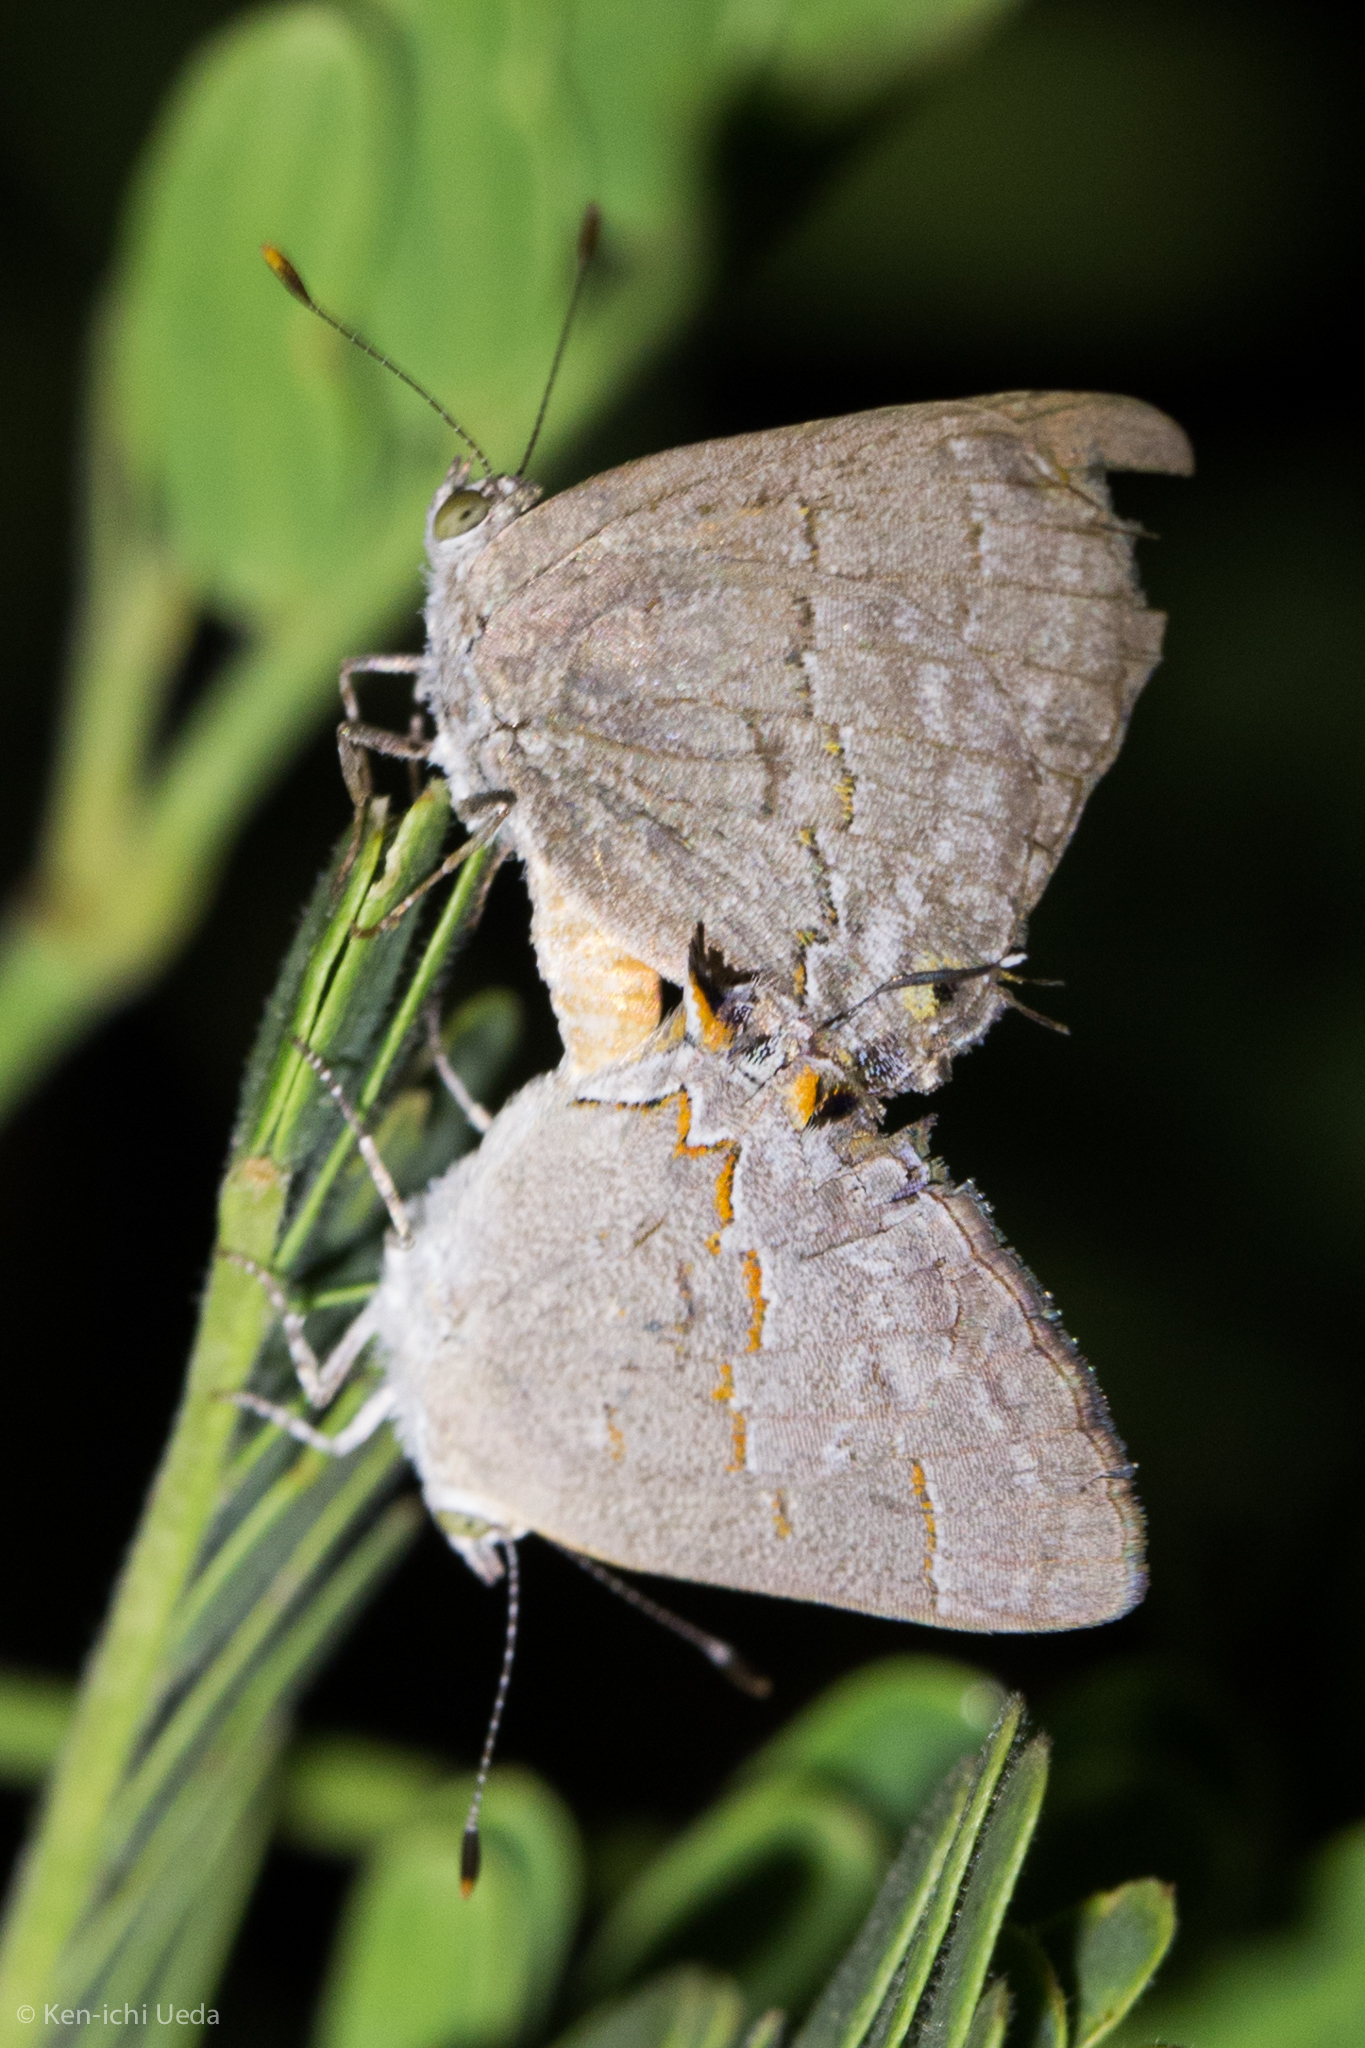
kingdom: Animalia
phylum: Arthropoda
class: Insecta
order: Lepidoptera
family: Lycaenidae
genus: Ministrymon
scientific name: Ministrymon leda
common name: Leda ministreak
